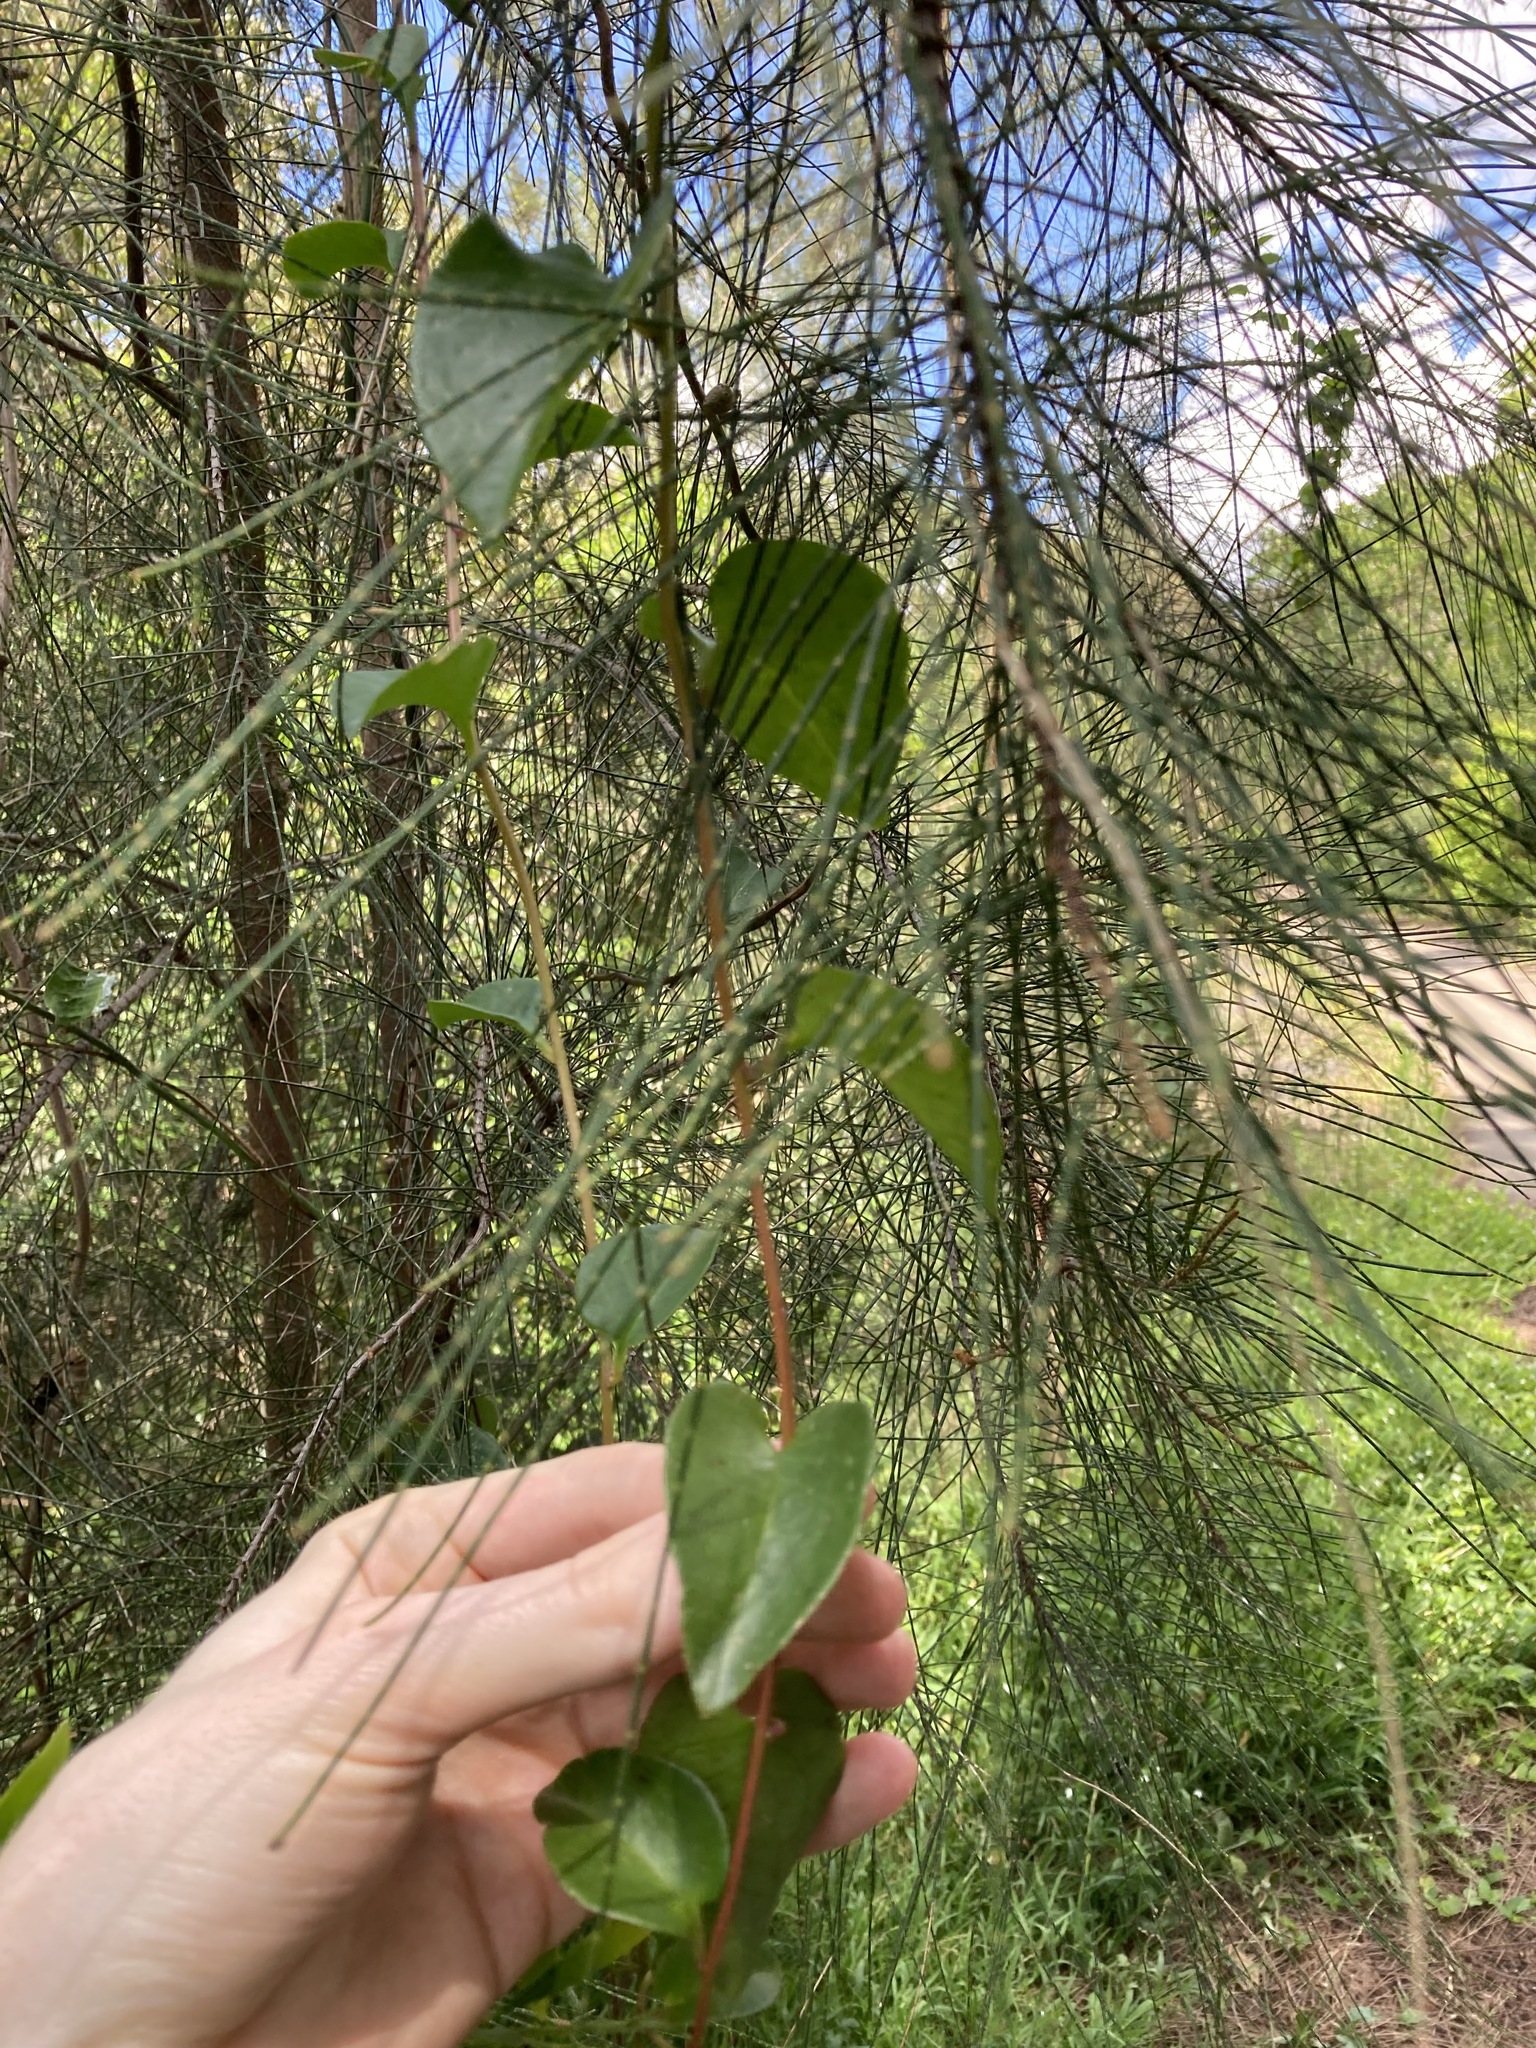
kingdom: Plantae
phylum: Tracheophyta
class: Magnoliopsida
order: Caryophyllales
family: Basellaceae
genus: Anredera
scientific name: Anredera cordifolia
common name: Heartleaf madeiravine
